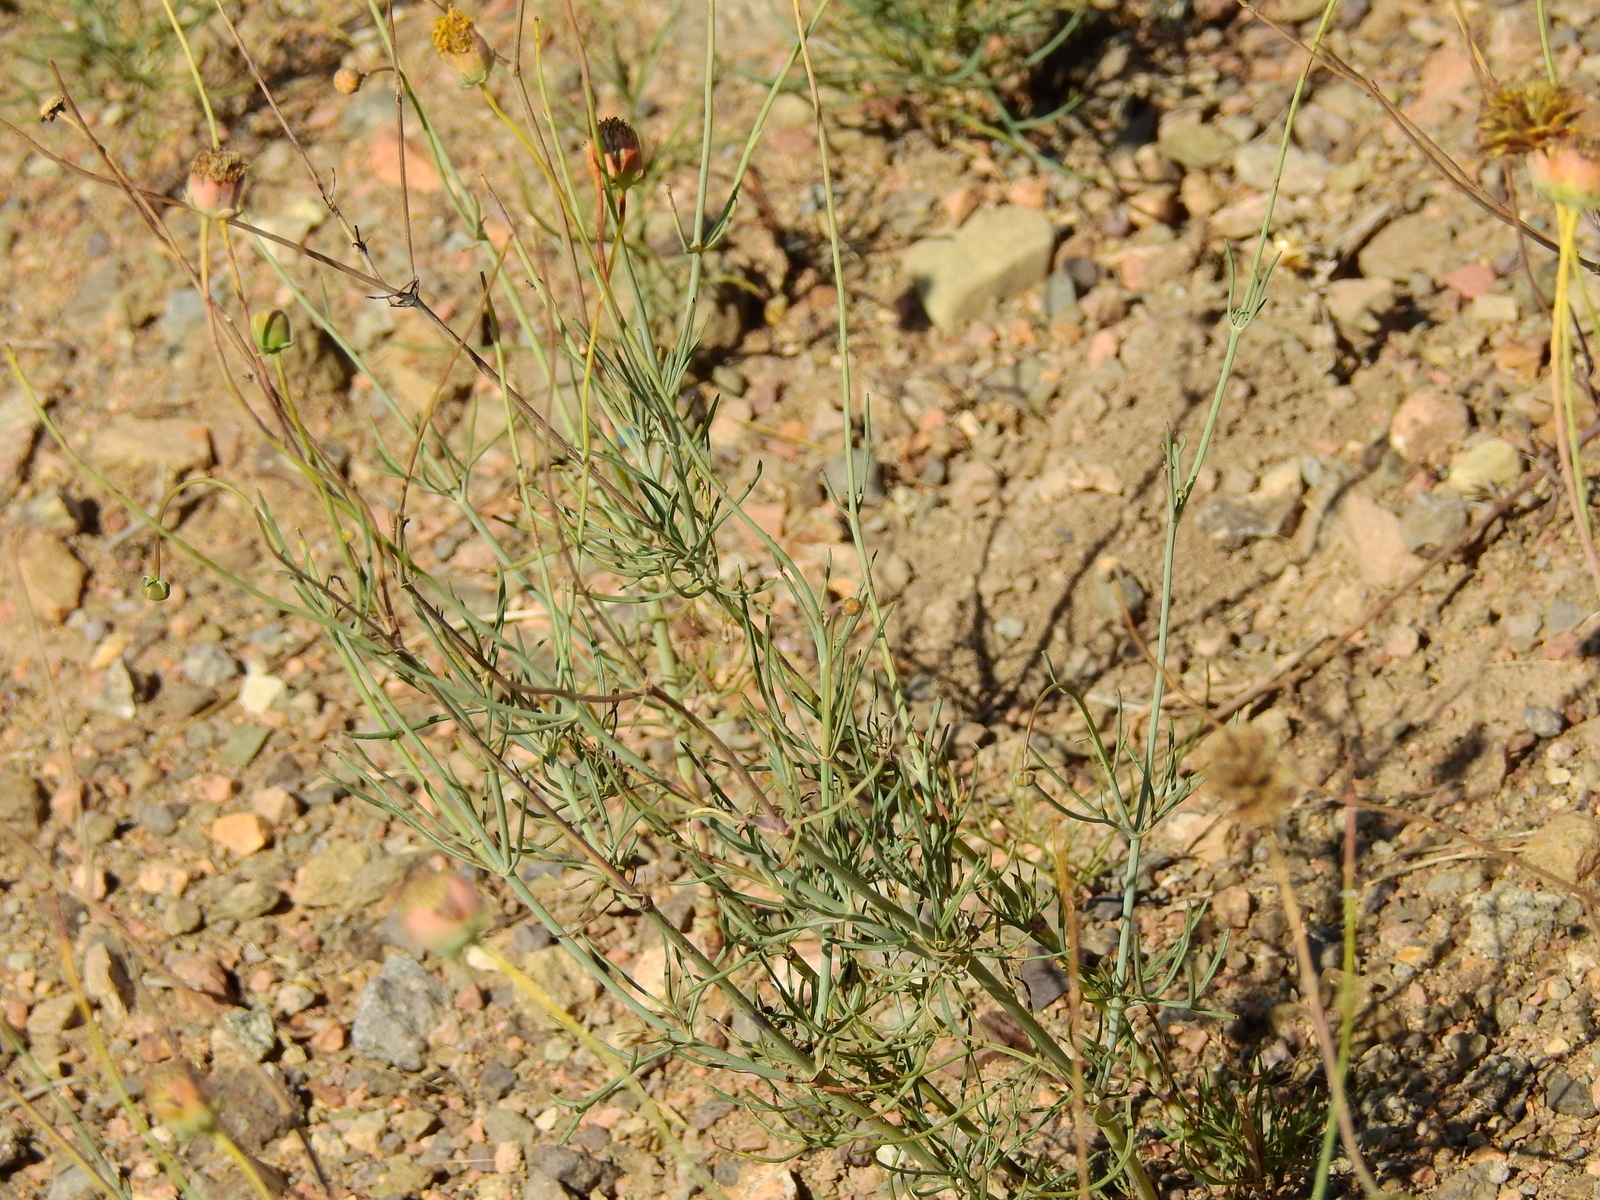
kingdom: Plantae
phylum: Tracheophyta
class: Magnoliopsida
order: Asterales
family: Asteraceae
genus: Thelesperma
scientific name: Thelesperma megapotamicum
